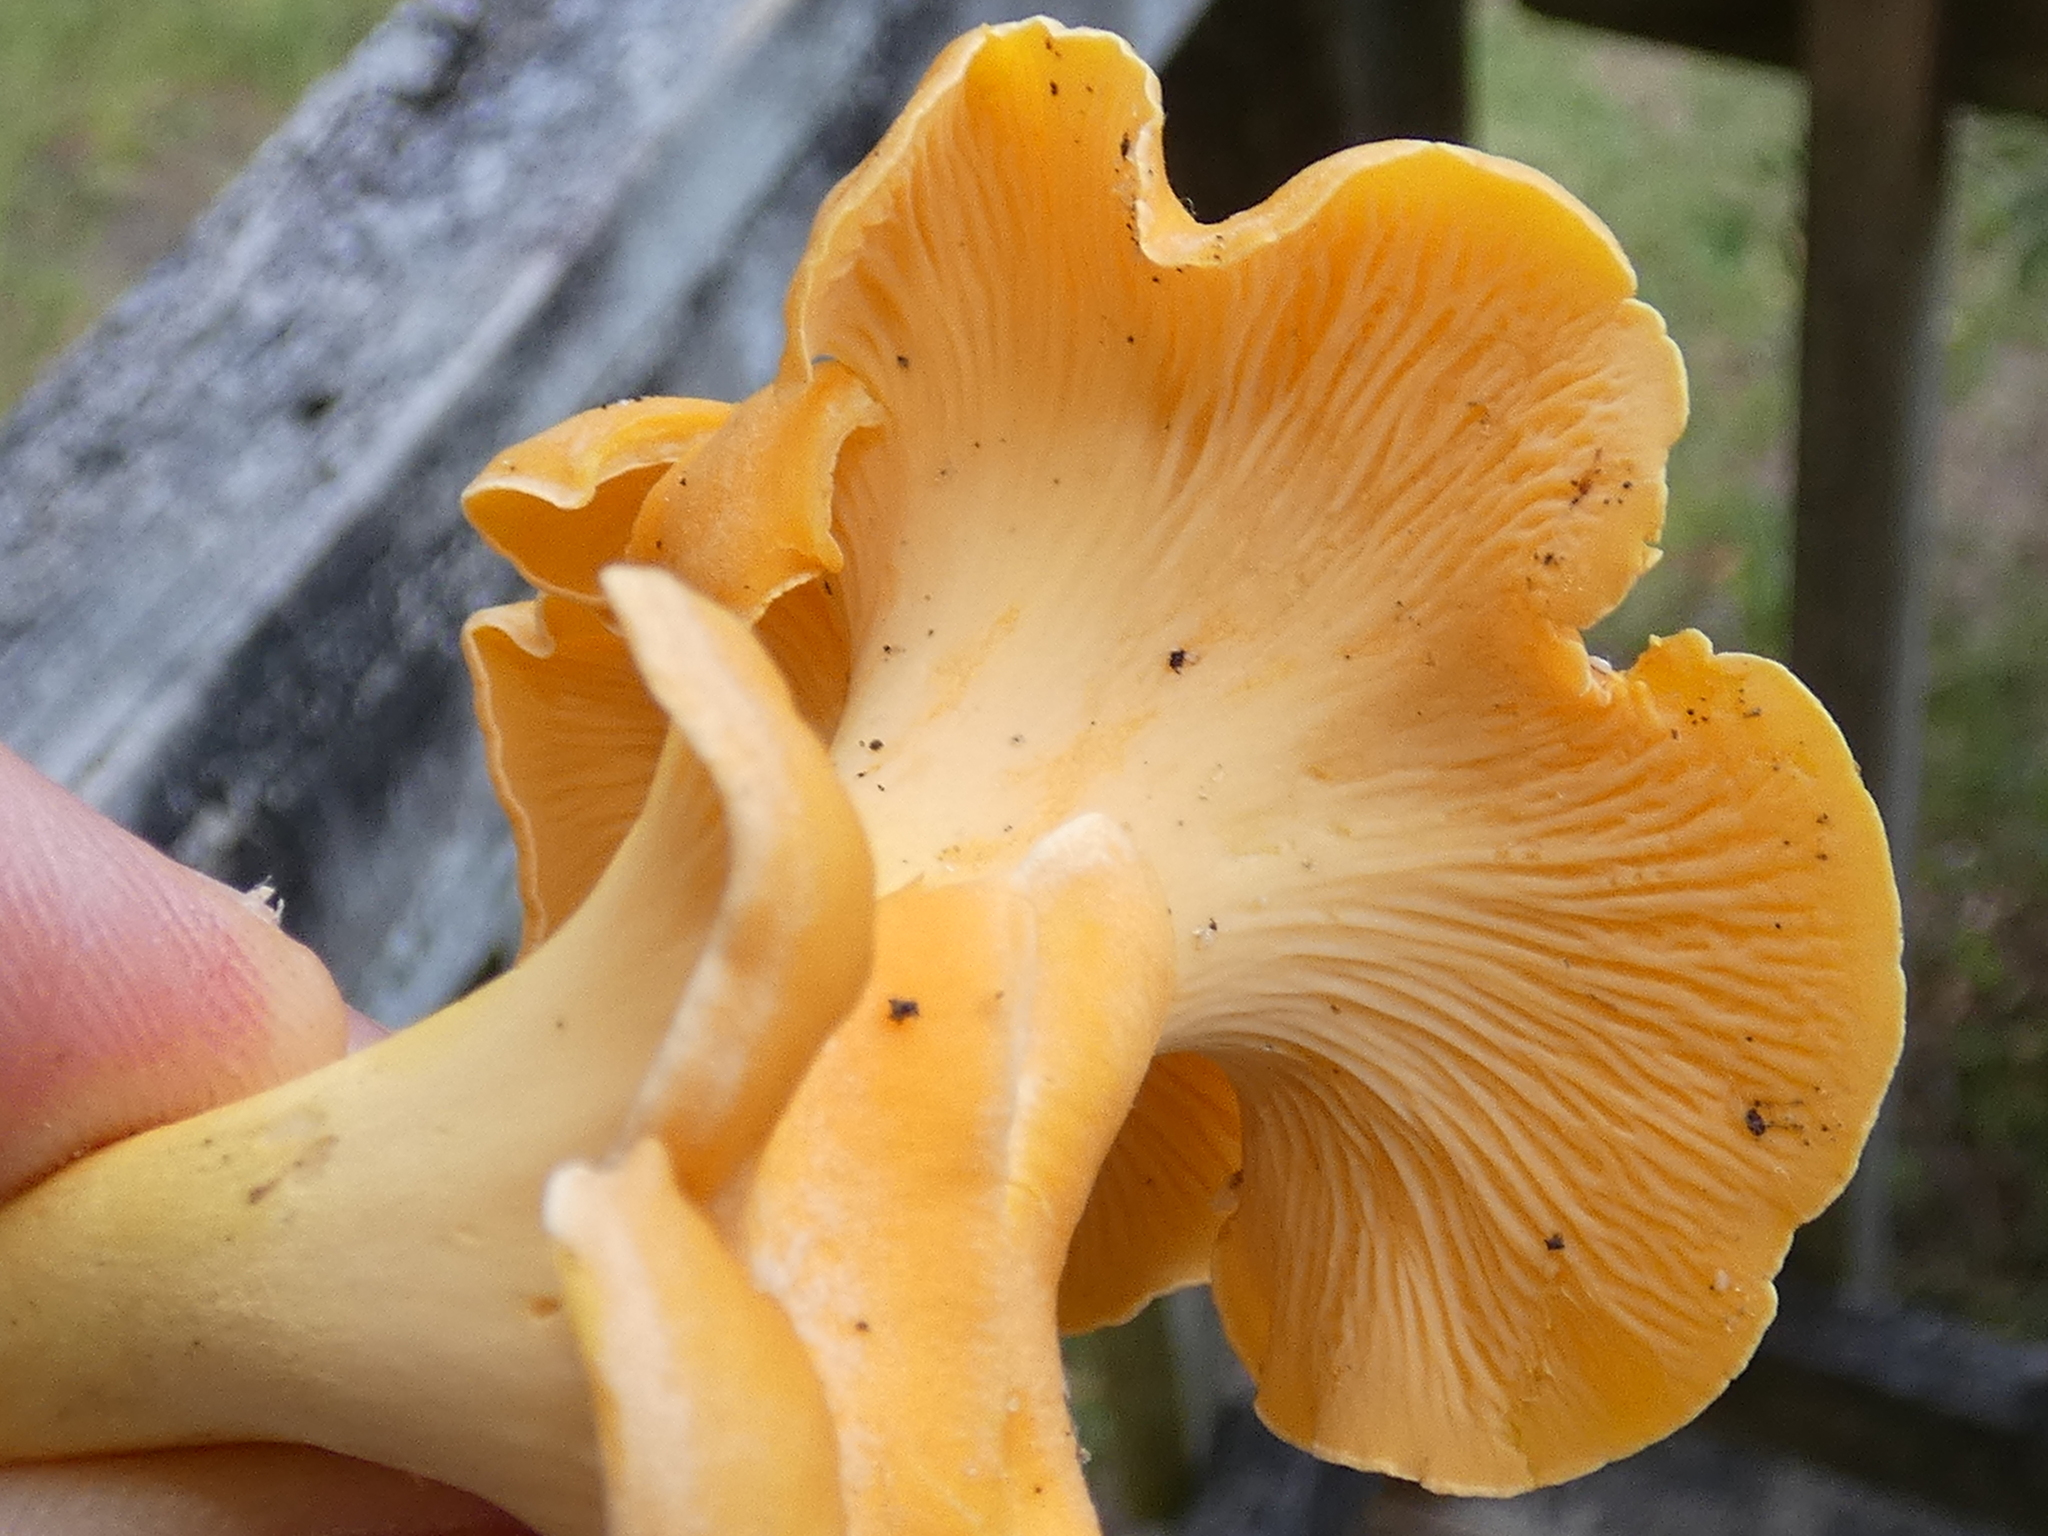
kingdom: Fungi
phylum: Basidiomycota
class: Agaricomycetes
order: Cantharellales
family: Hydnaceae
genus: Cantharellus
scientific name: Cantharellus lateritius
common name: Smooth chanterelle
